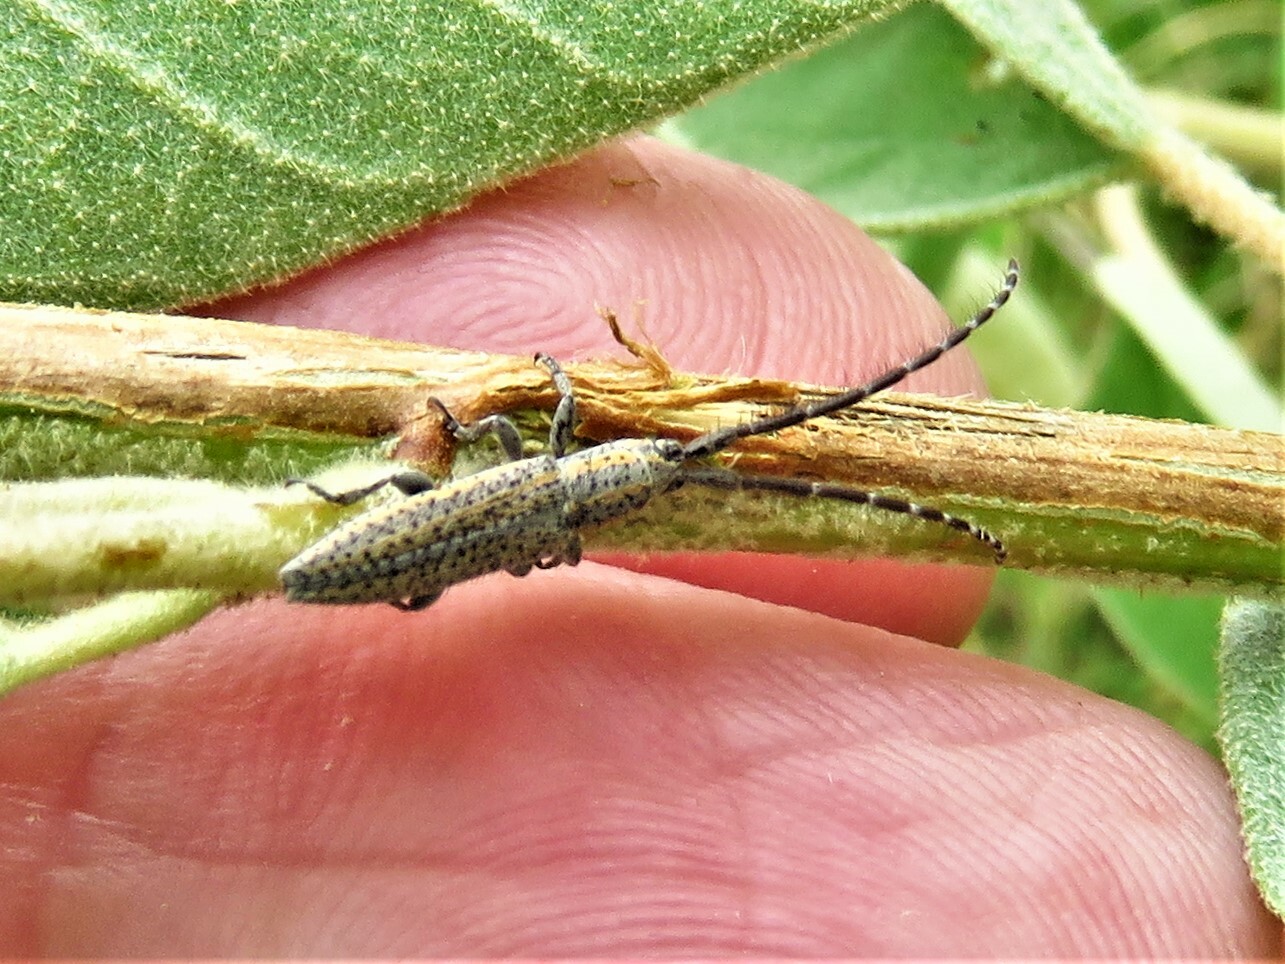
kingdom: Animalia
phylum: Arthropoda
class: Insecta
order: Coleoptera
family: Cerambycidae
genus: Dorcasta
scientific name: Dorcasta cinerea
